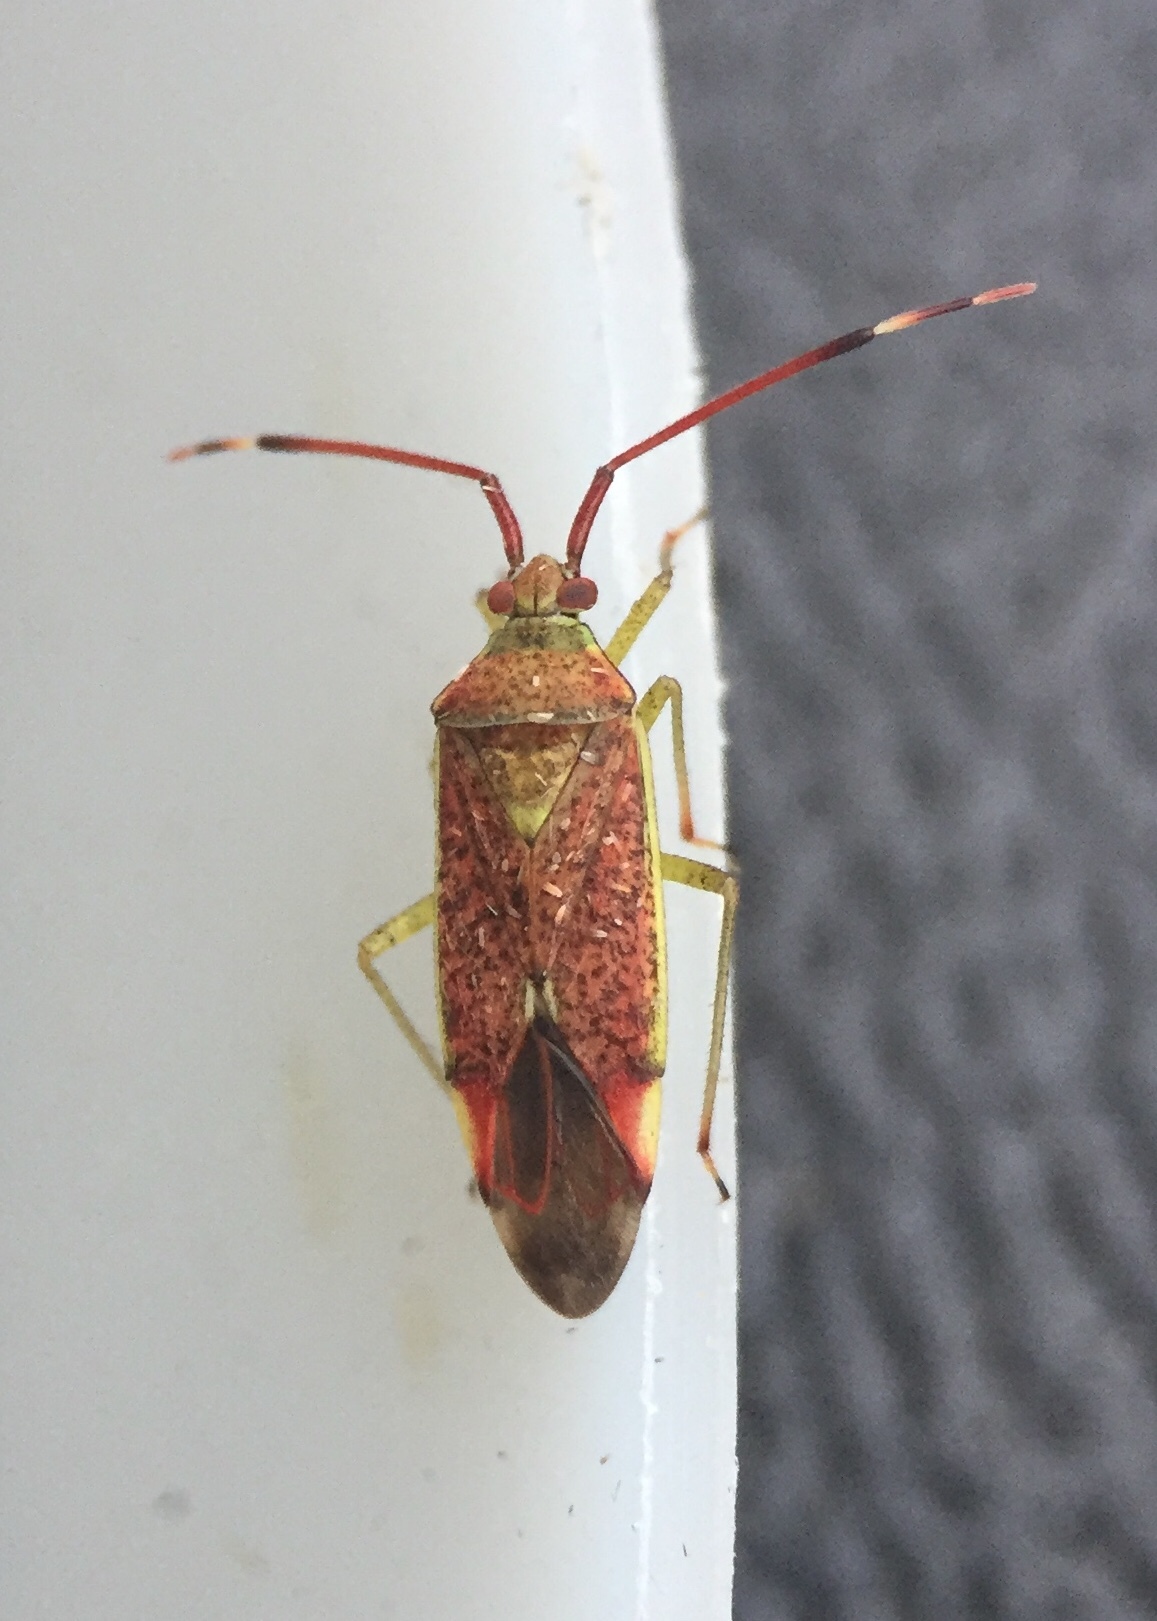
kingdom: Animalia
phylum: Arthropoda
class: Insecta
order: Hemiptera
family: Miridae
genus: Pantilius
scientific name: Pantilius tunicatus
